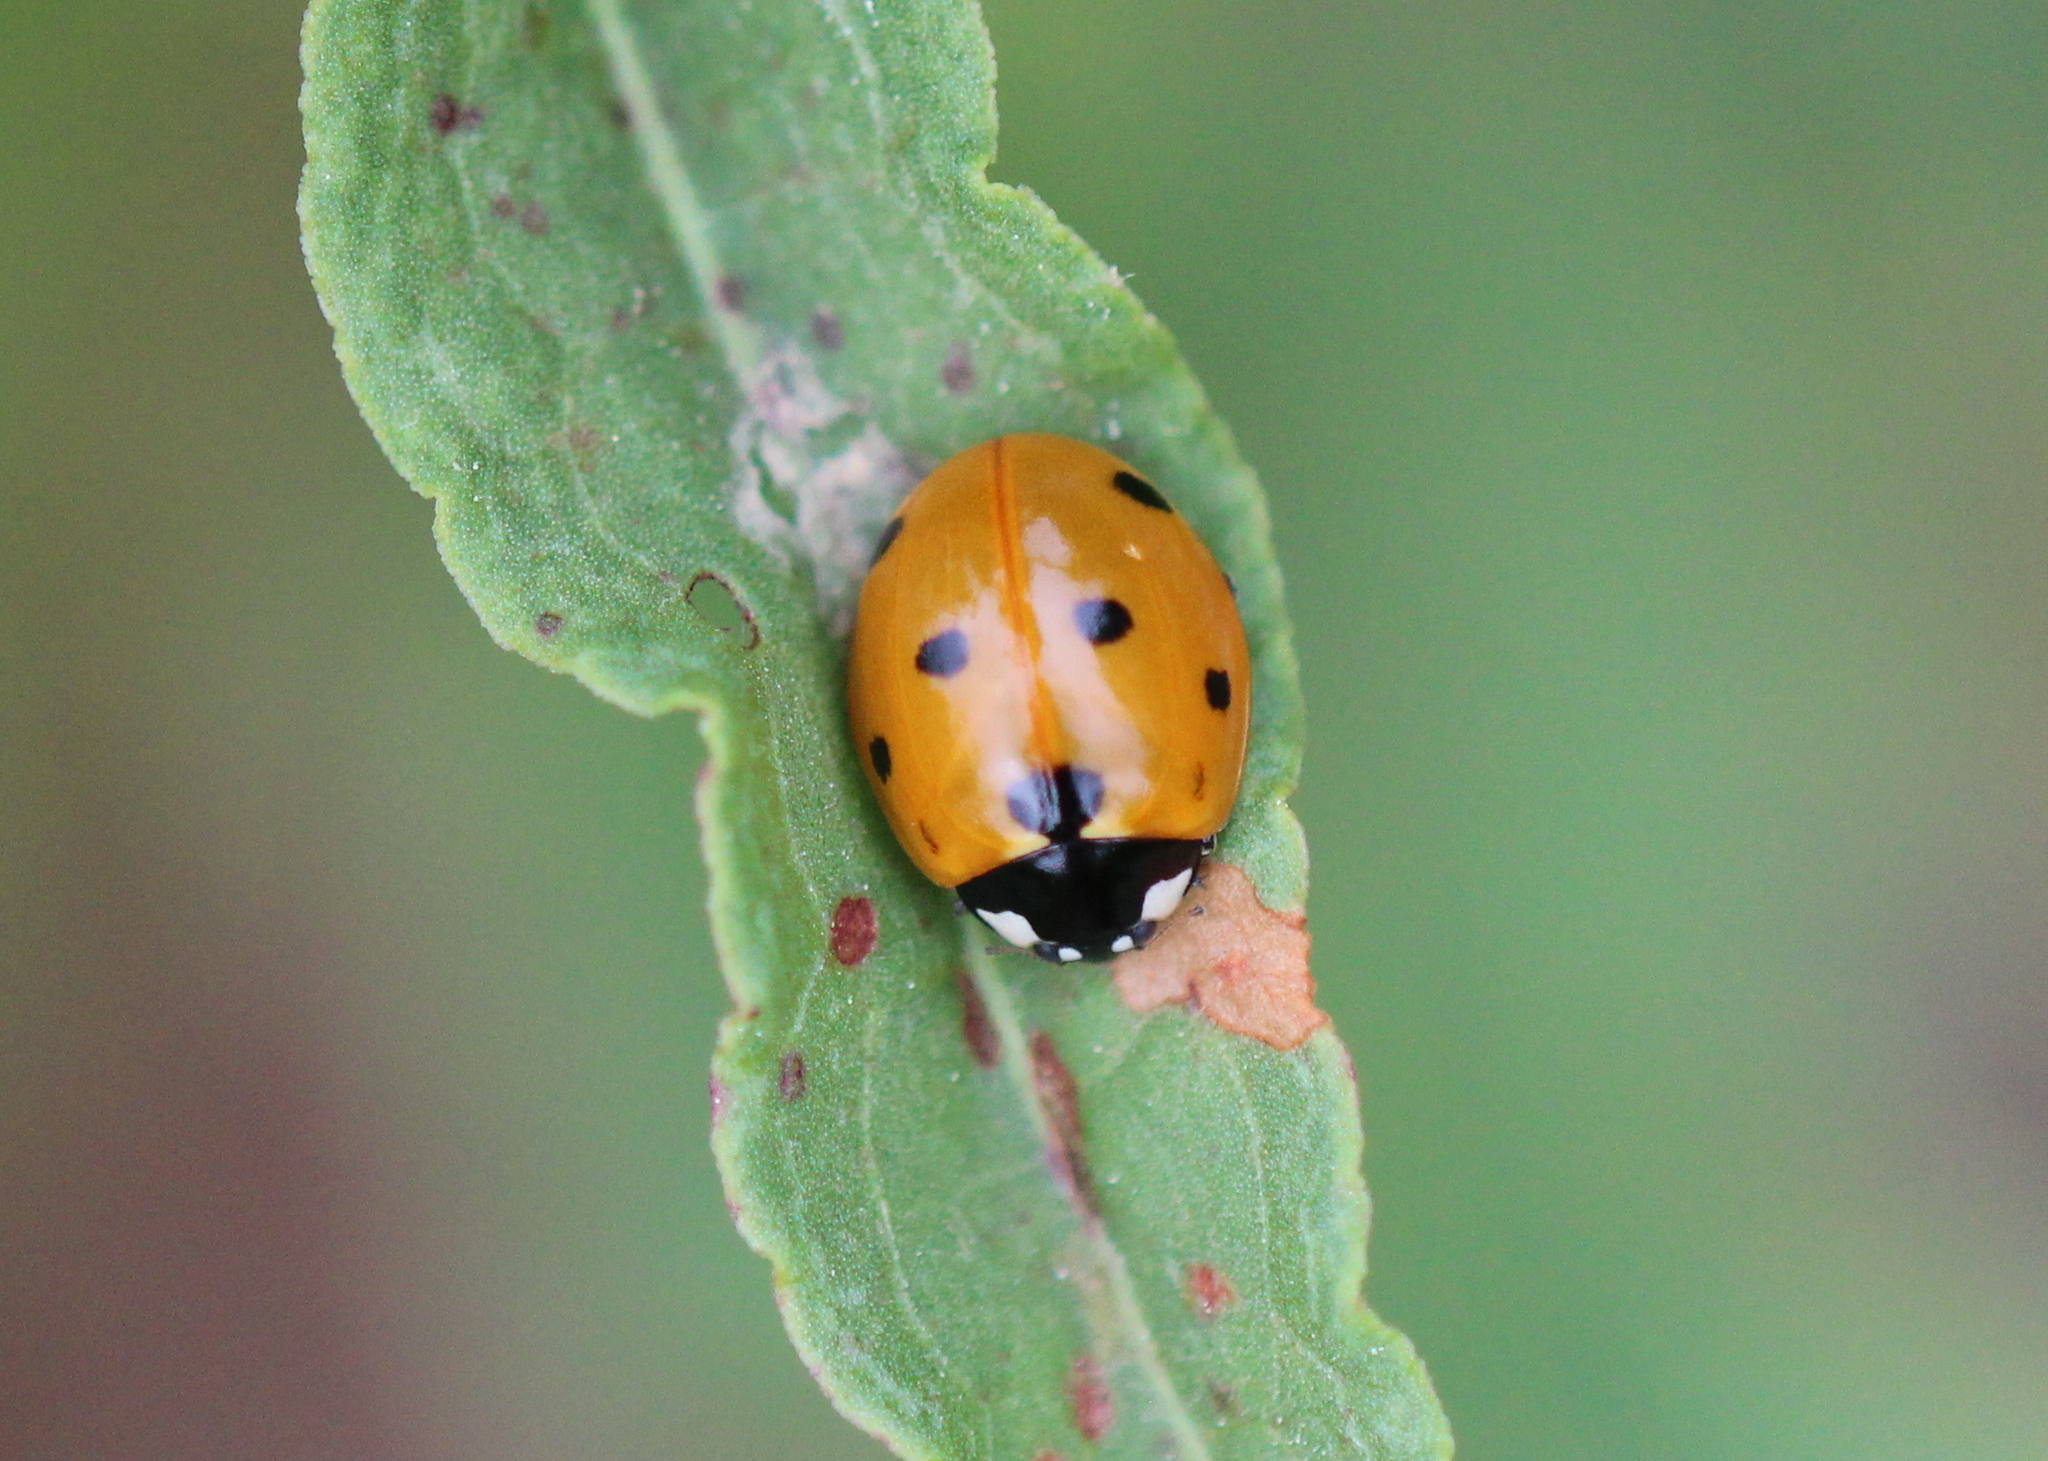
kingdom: Animalia
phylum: Arthropoda
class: Insecta
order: Coleoptera
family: Coccinellidae
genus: Coccinella
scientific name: Coccinella septempunctata
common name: Sevenspotted lady beetle
